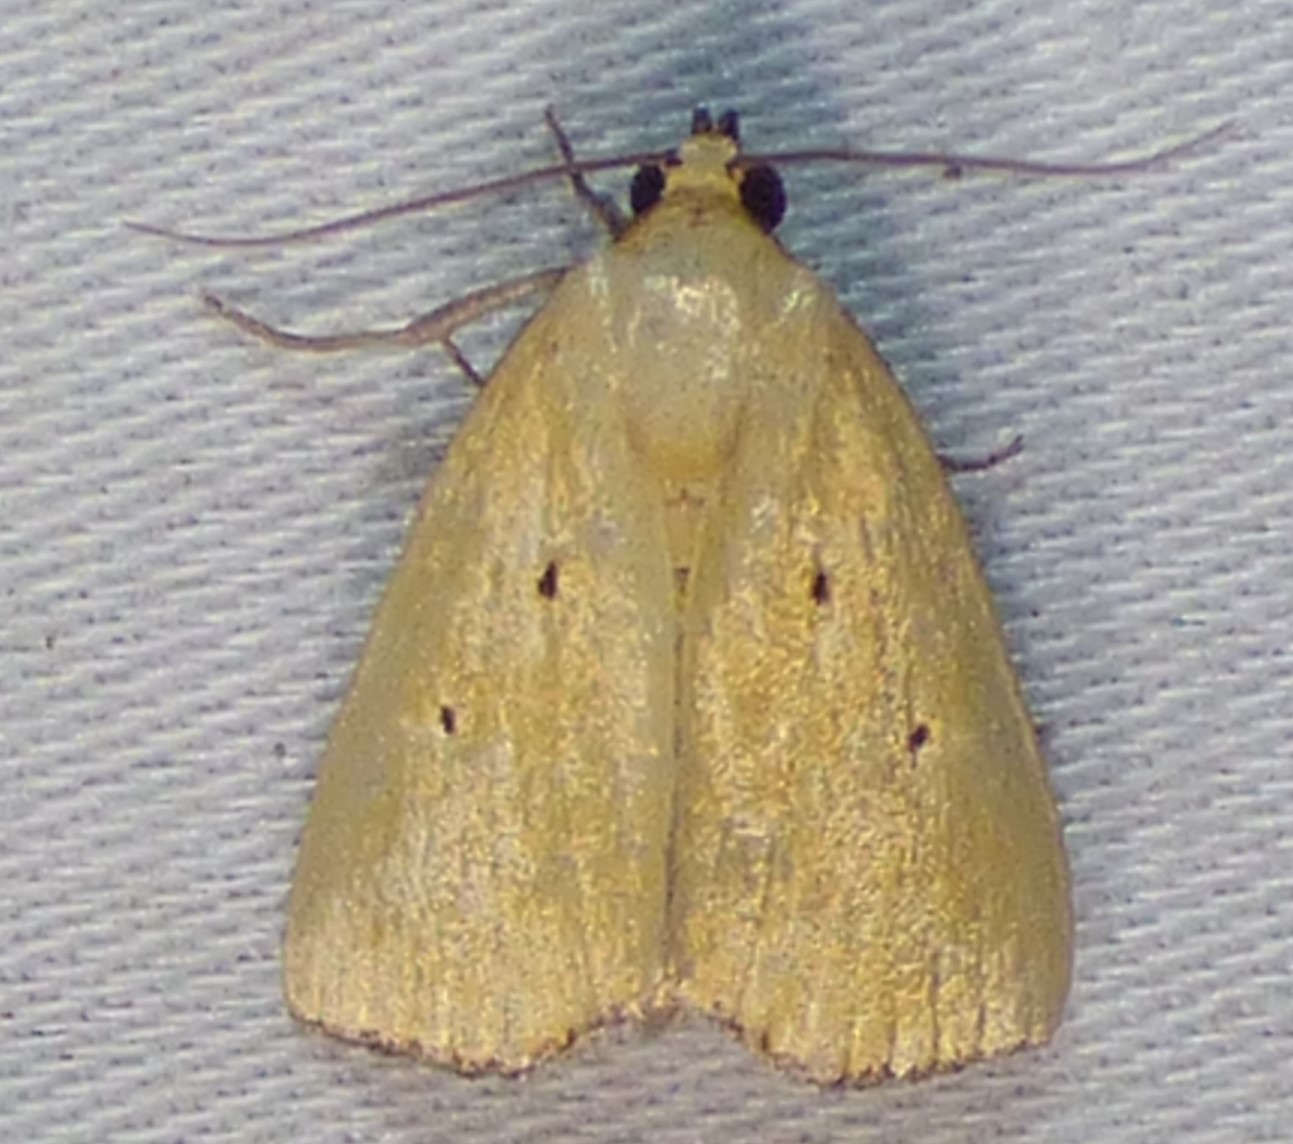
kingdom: Animalia
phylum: Arthropoda
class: Insecta
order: Lepidoptera
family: Noctuidae
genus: Marimatha
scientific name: Marimatha nigrofimbria
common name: Black-bordered lemon moth
